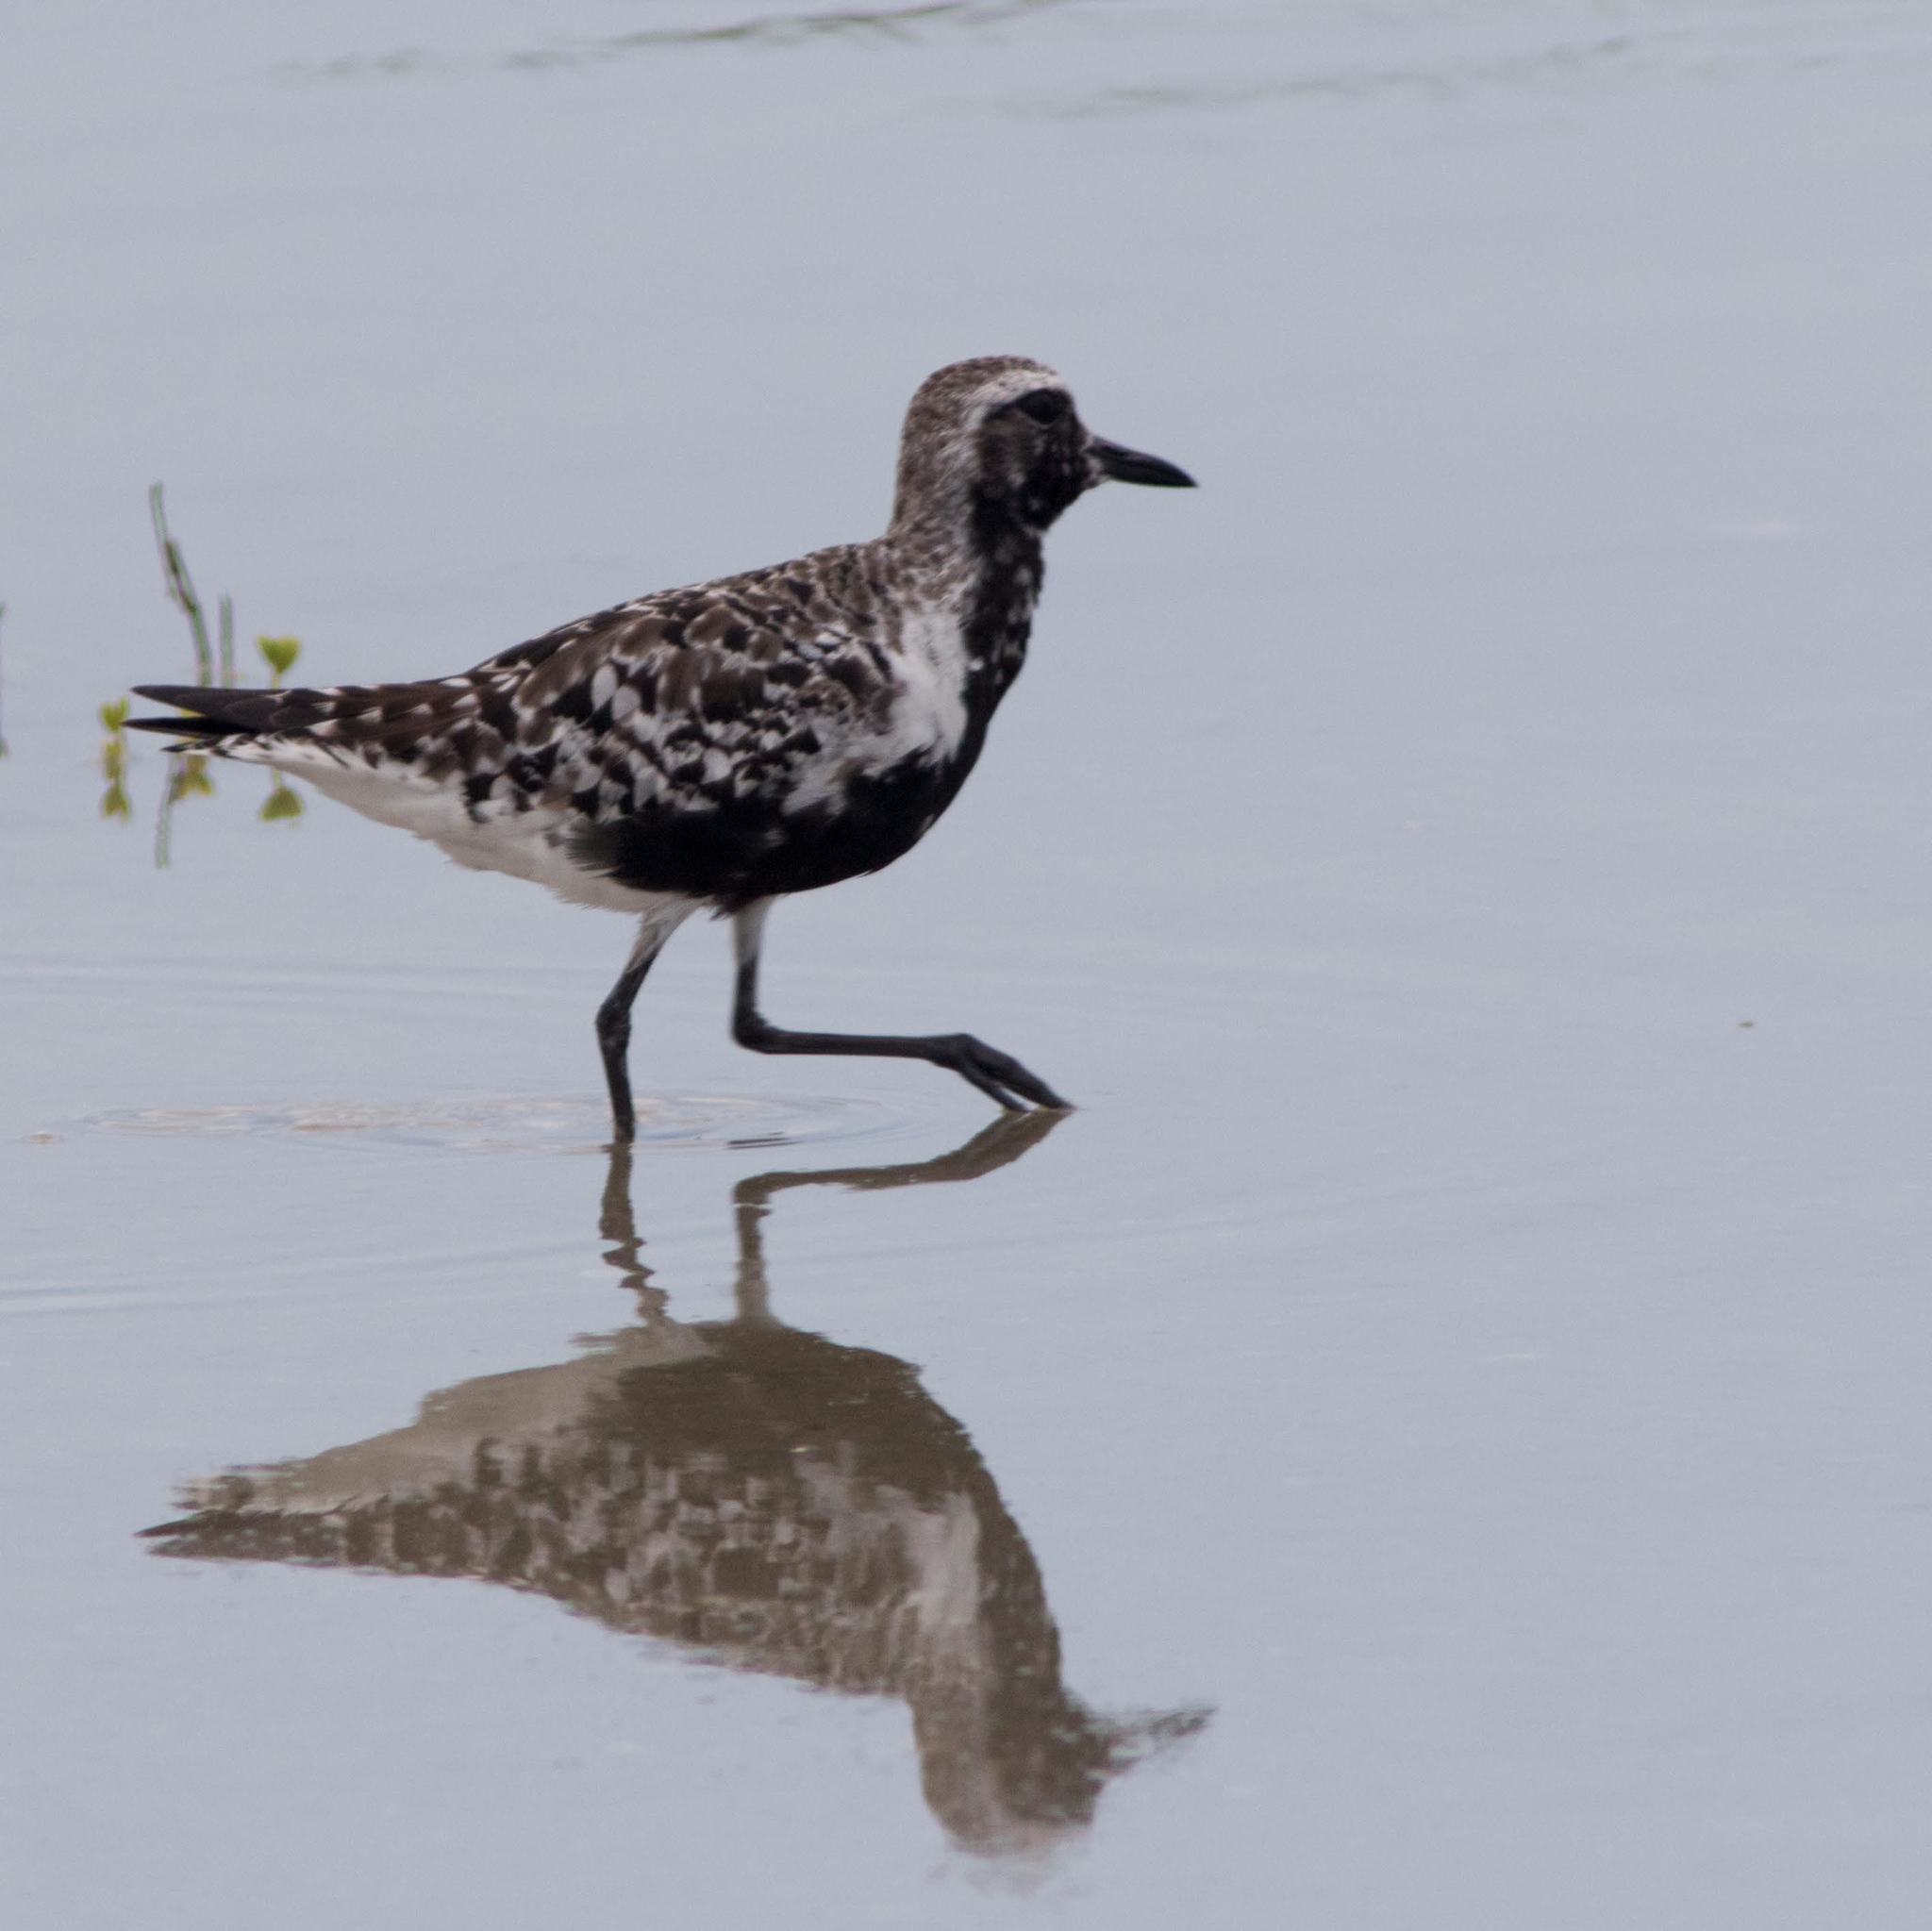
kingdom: Animalia
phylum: Chordata
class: Aves
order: Charadriiformes
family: Charadriidae
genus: Pluvialis
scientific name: Pluvialis squatarola
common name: Grey plover
